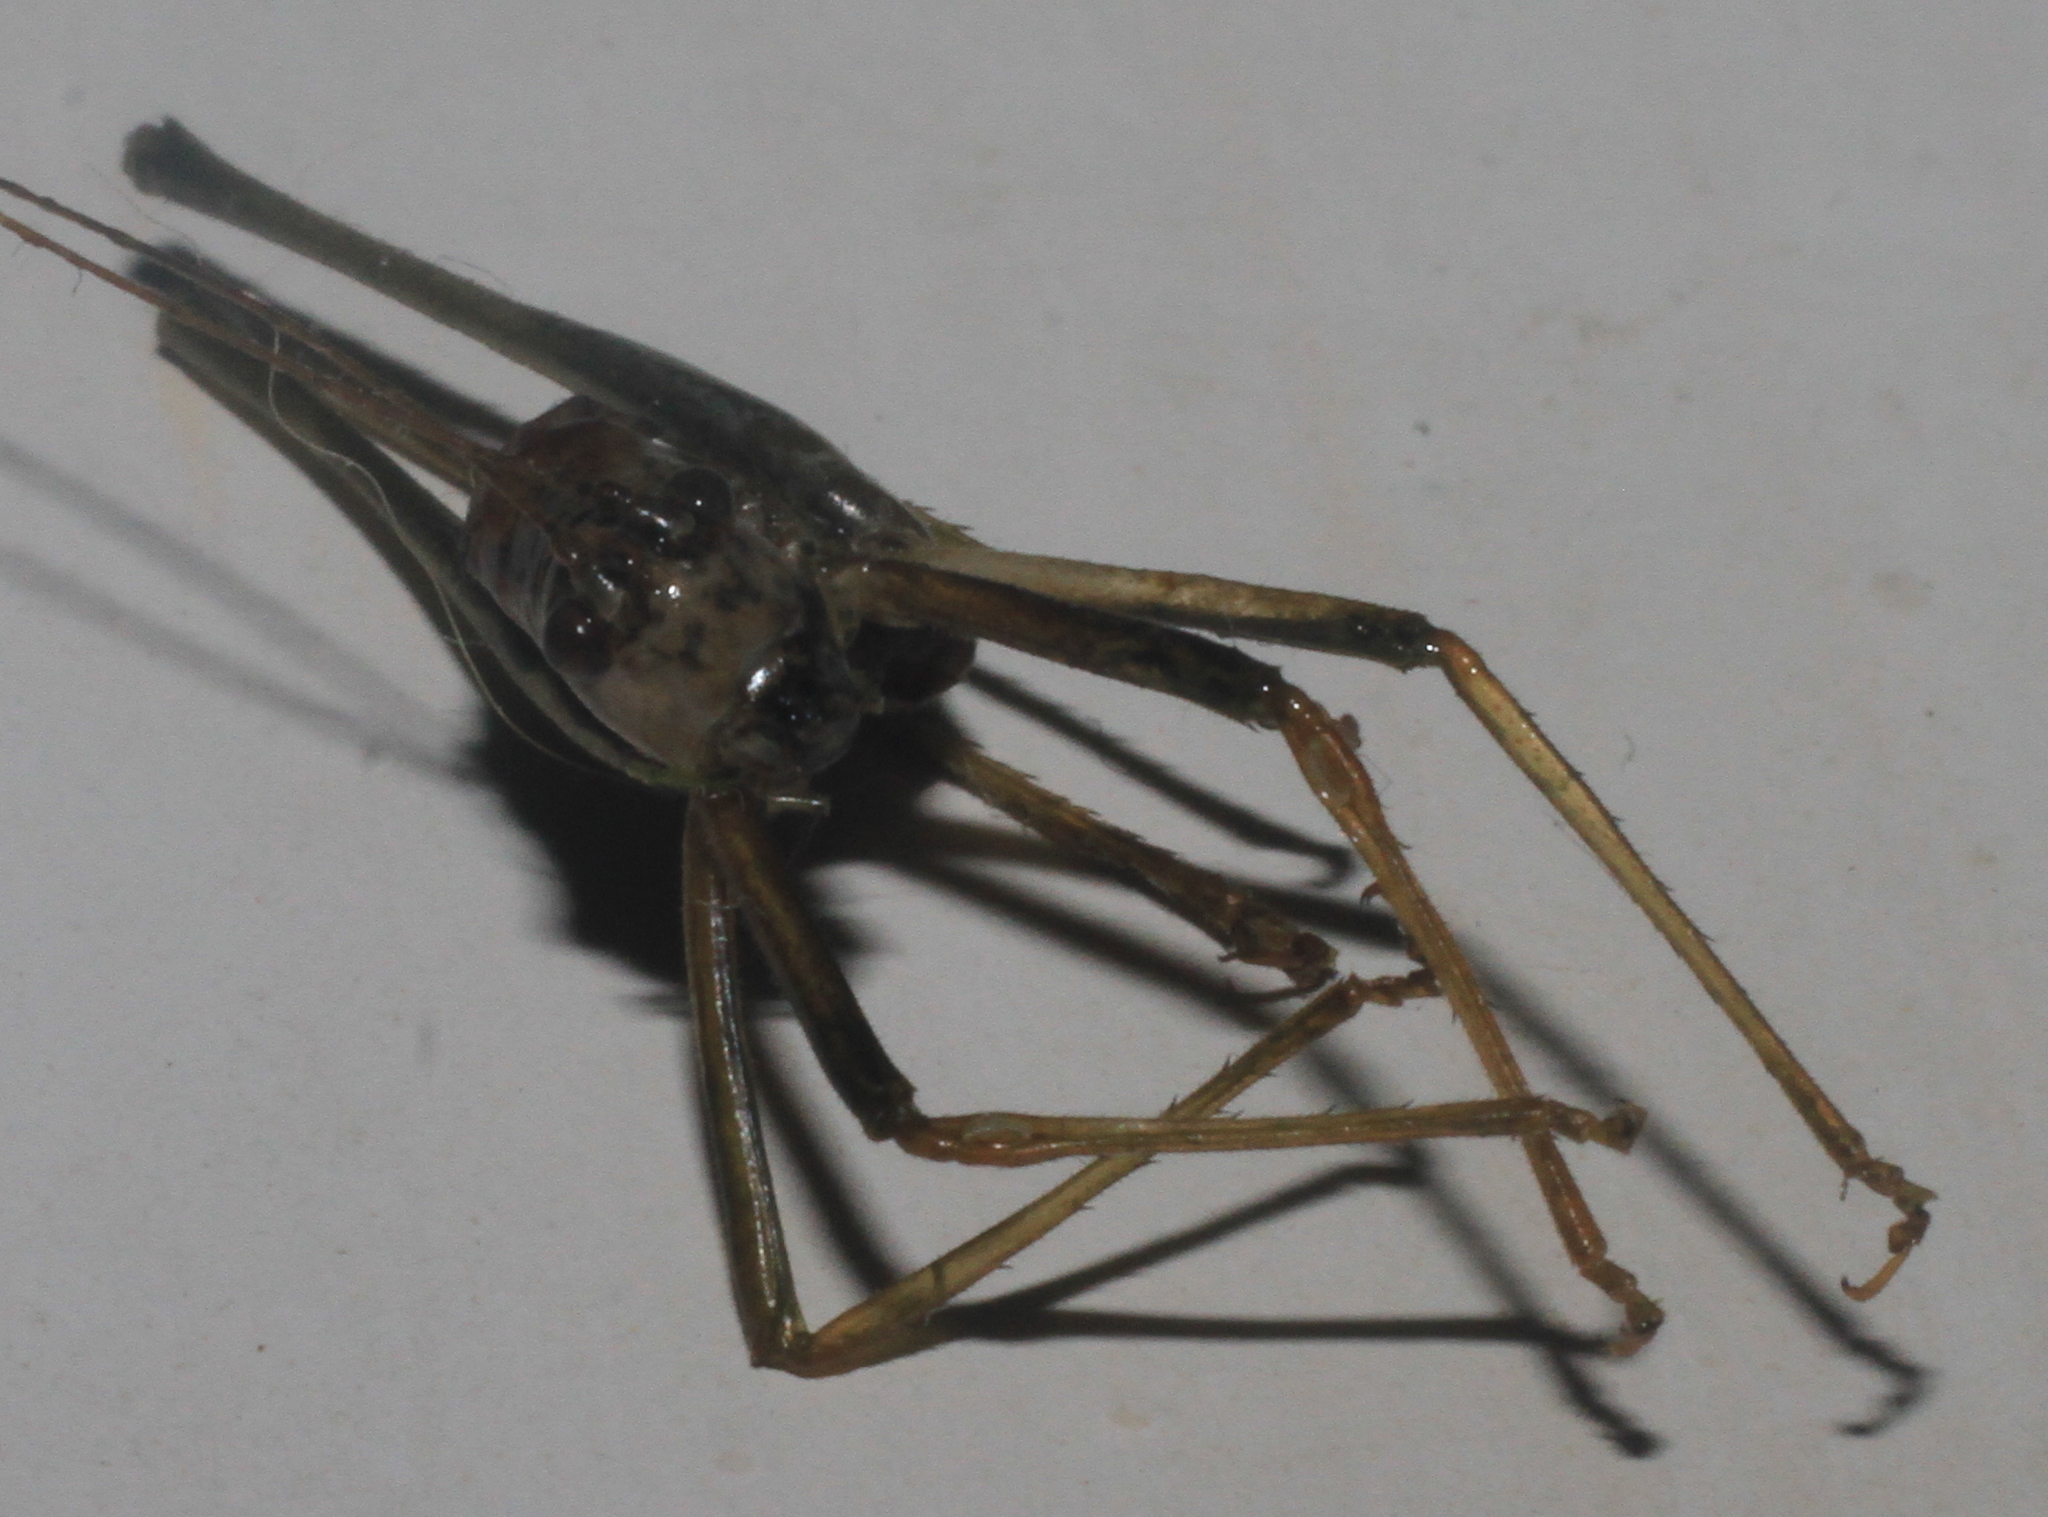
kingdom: Animalia
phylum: Arthropoda
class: Insecta
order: Orthoptera
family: Tettigoniidae
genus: Pholidoptera
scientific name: Pholidoptera griseoaptera
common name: Dark bush-cricket
